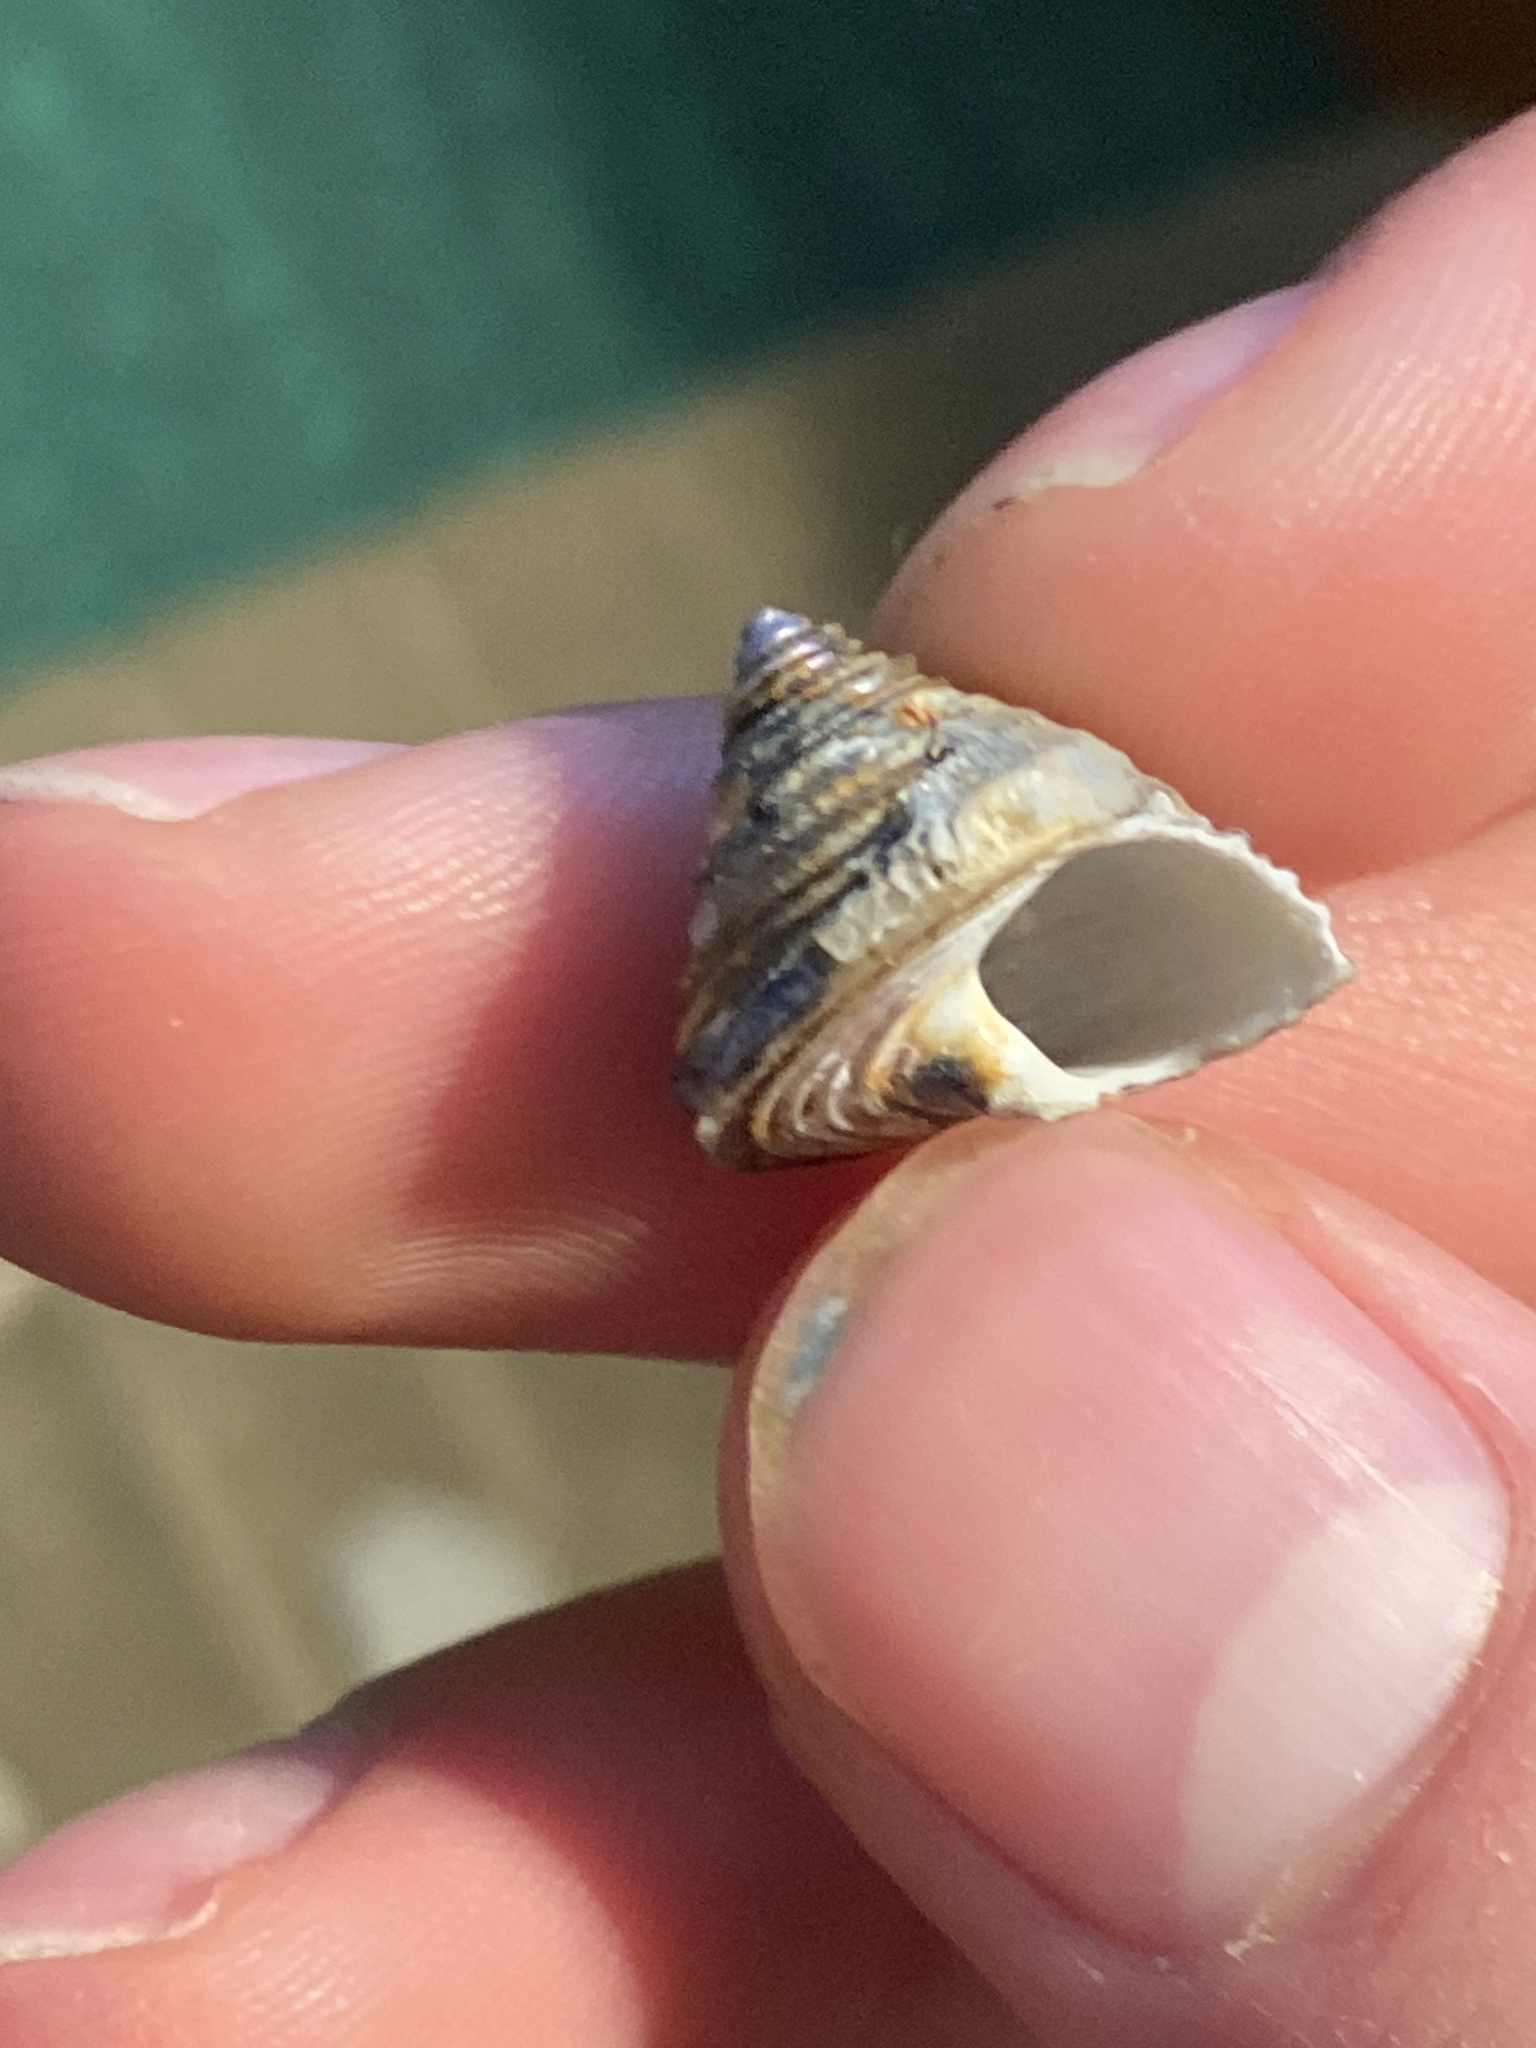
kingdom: Animalia
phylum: Mollusca
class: Gastropoda
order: Trochida
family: Calliostomatidae
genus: Calliostoma
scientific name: Calliostoma canaliculatum
